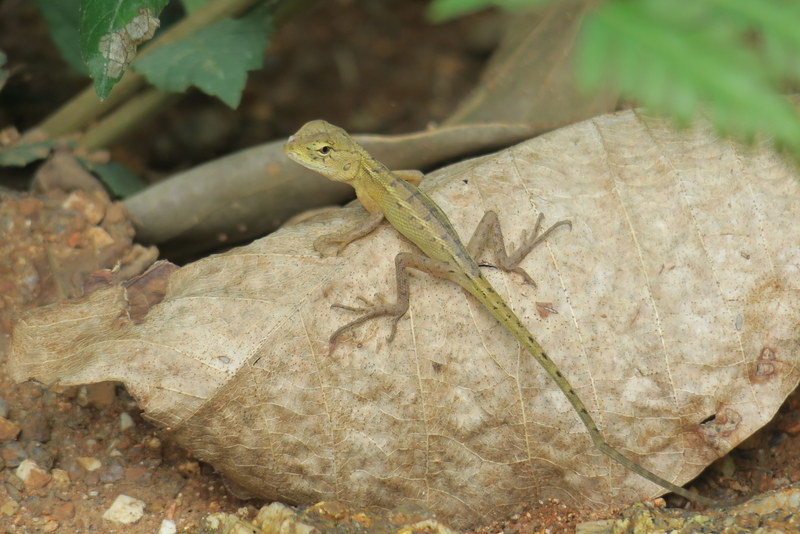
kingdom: Animalia
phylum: Chordata
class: Squamata
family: Agamidae
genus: Calotes
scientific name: Calotes versicolor
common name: Oriental garden lizard
